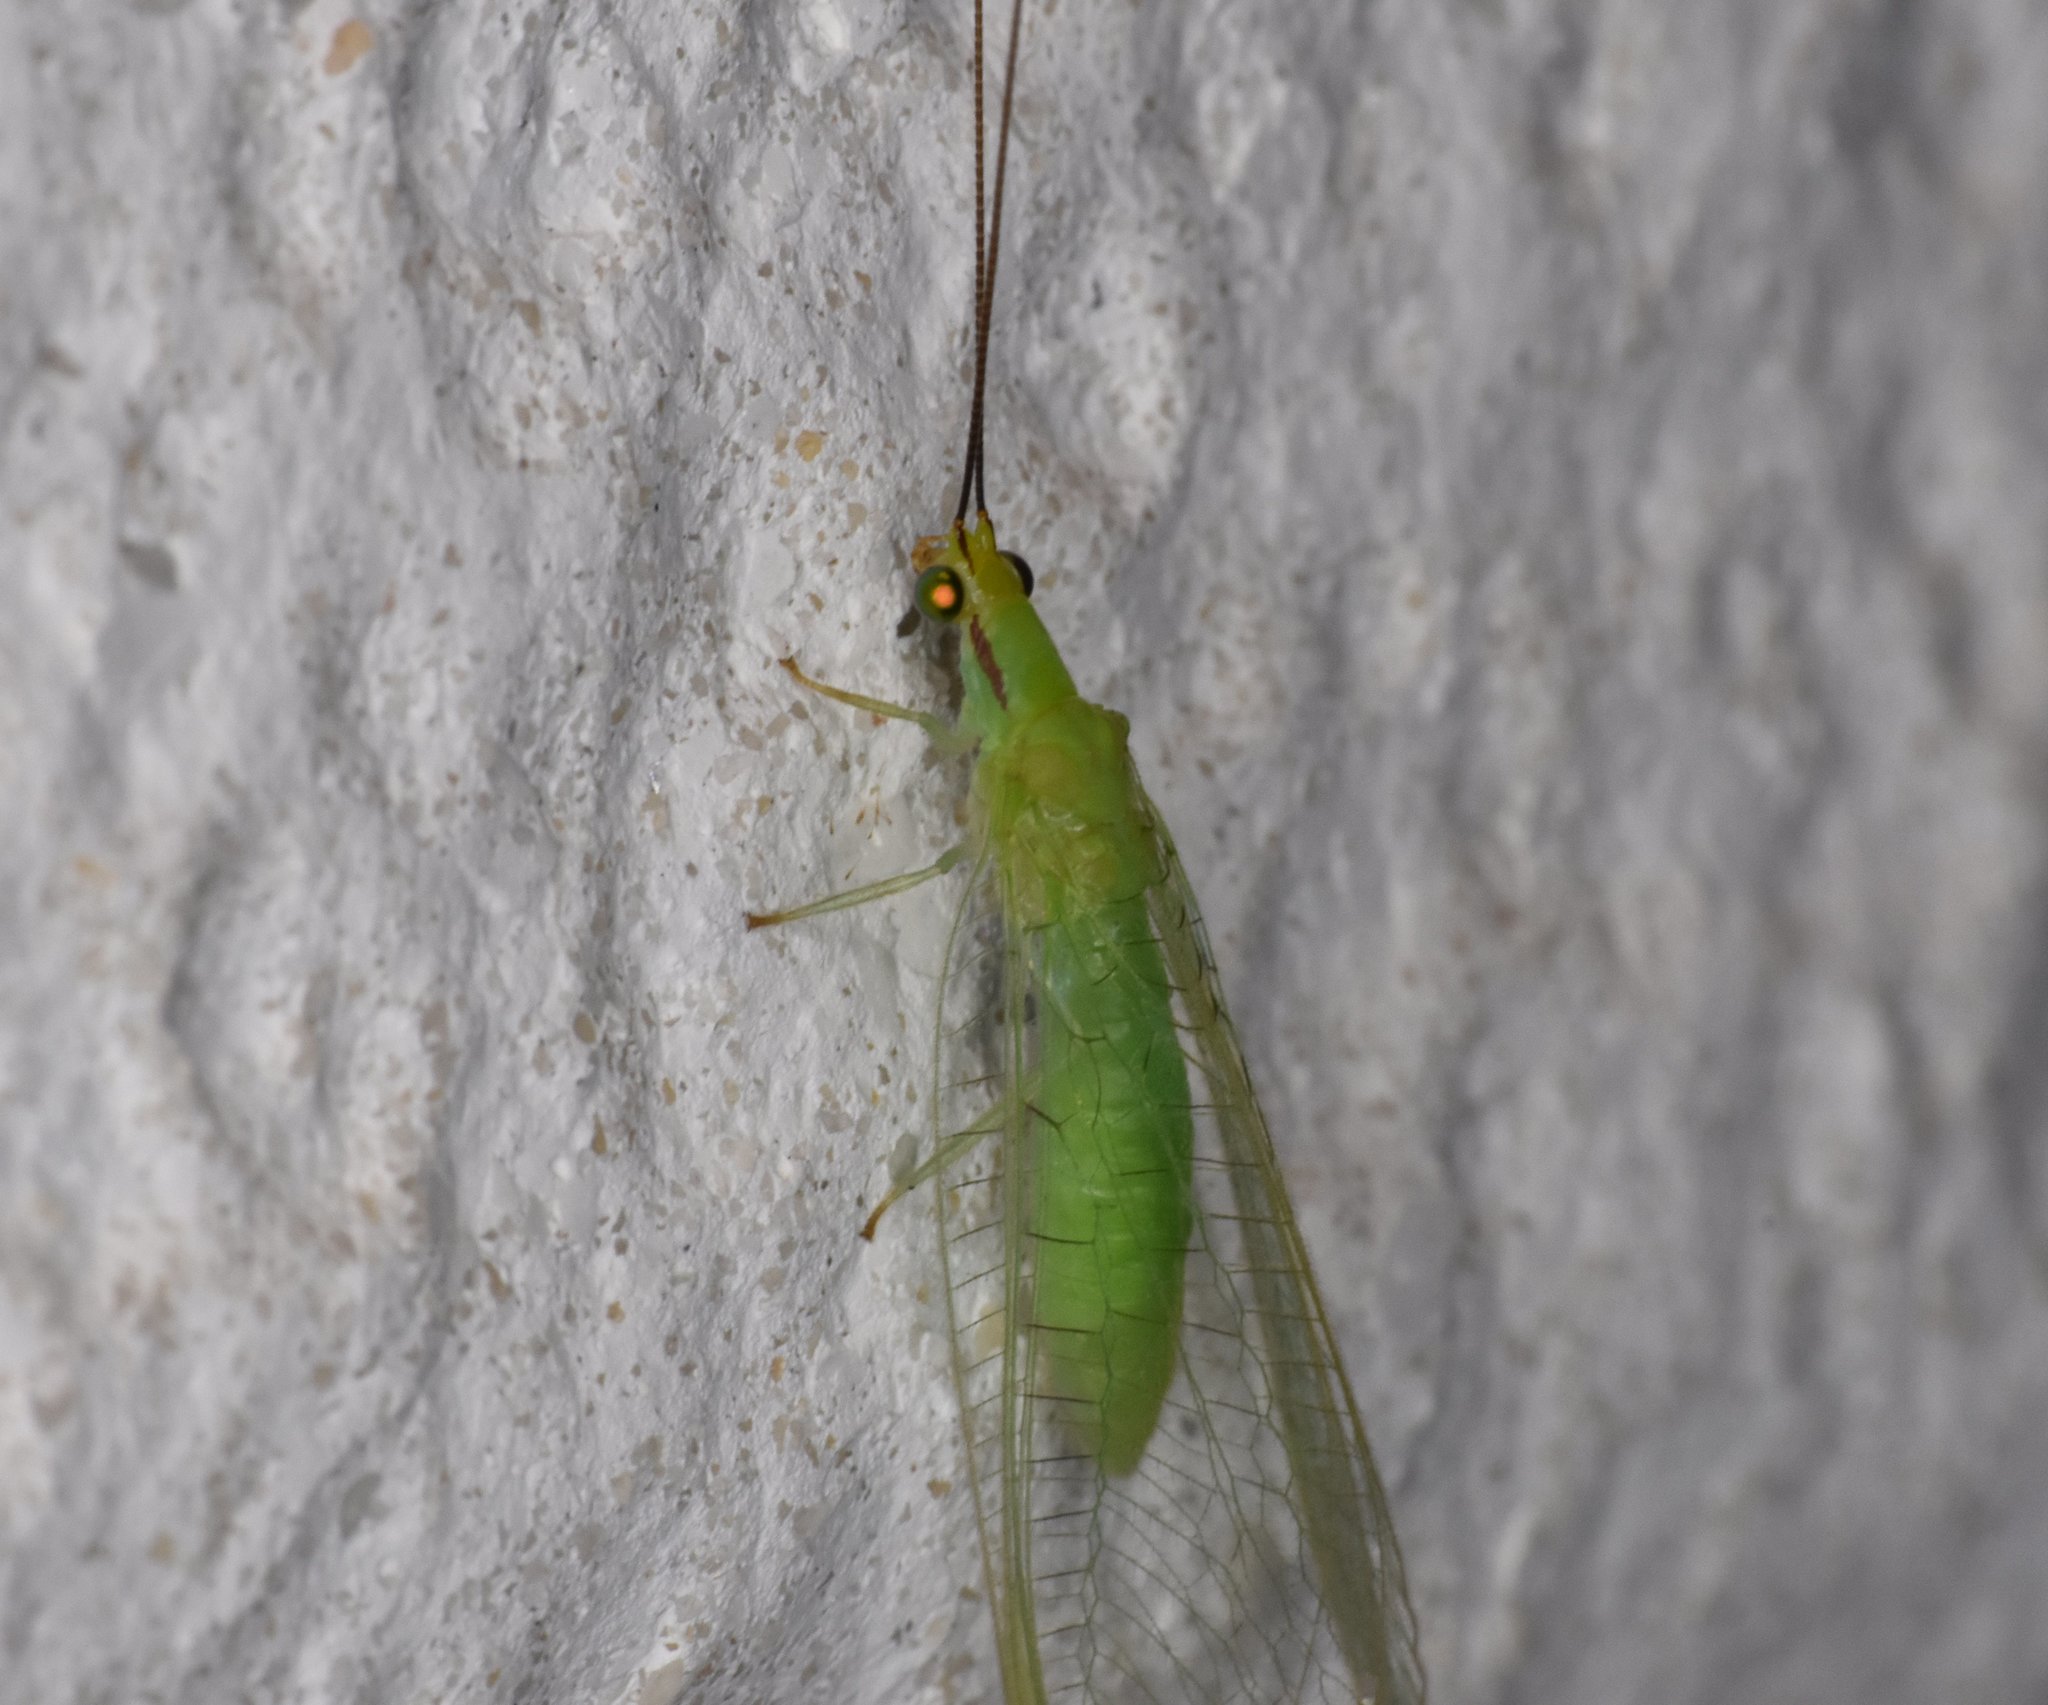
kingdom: Animalia
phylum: Arthropoda
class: Insecta
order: Neuroptera
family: Chrysopidae
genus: Ceraeochrysa
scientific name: Ceraeochrysa claveri
